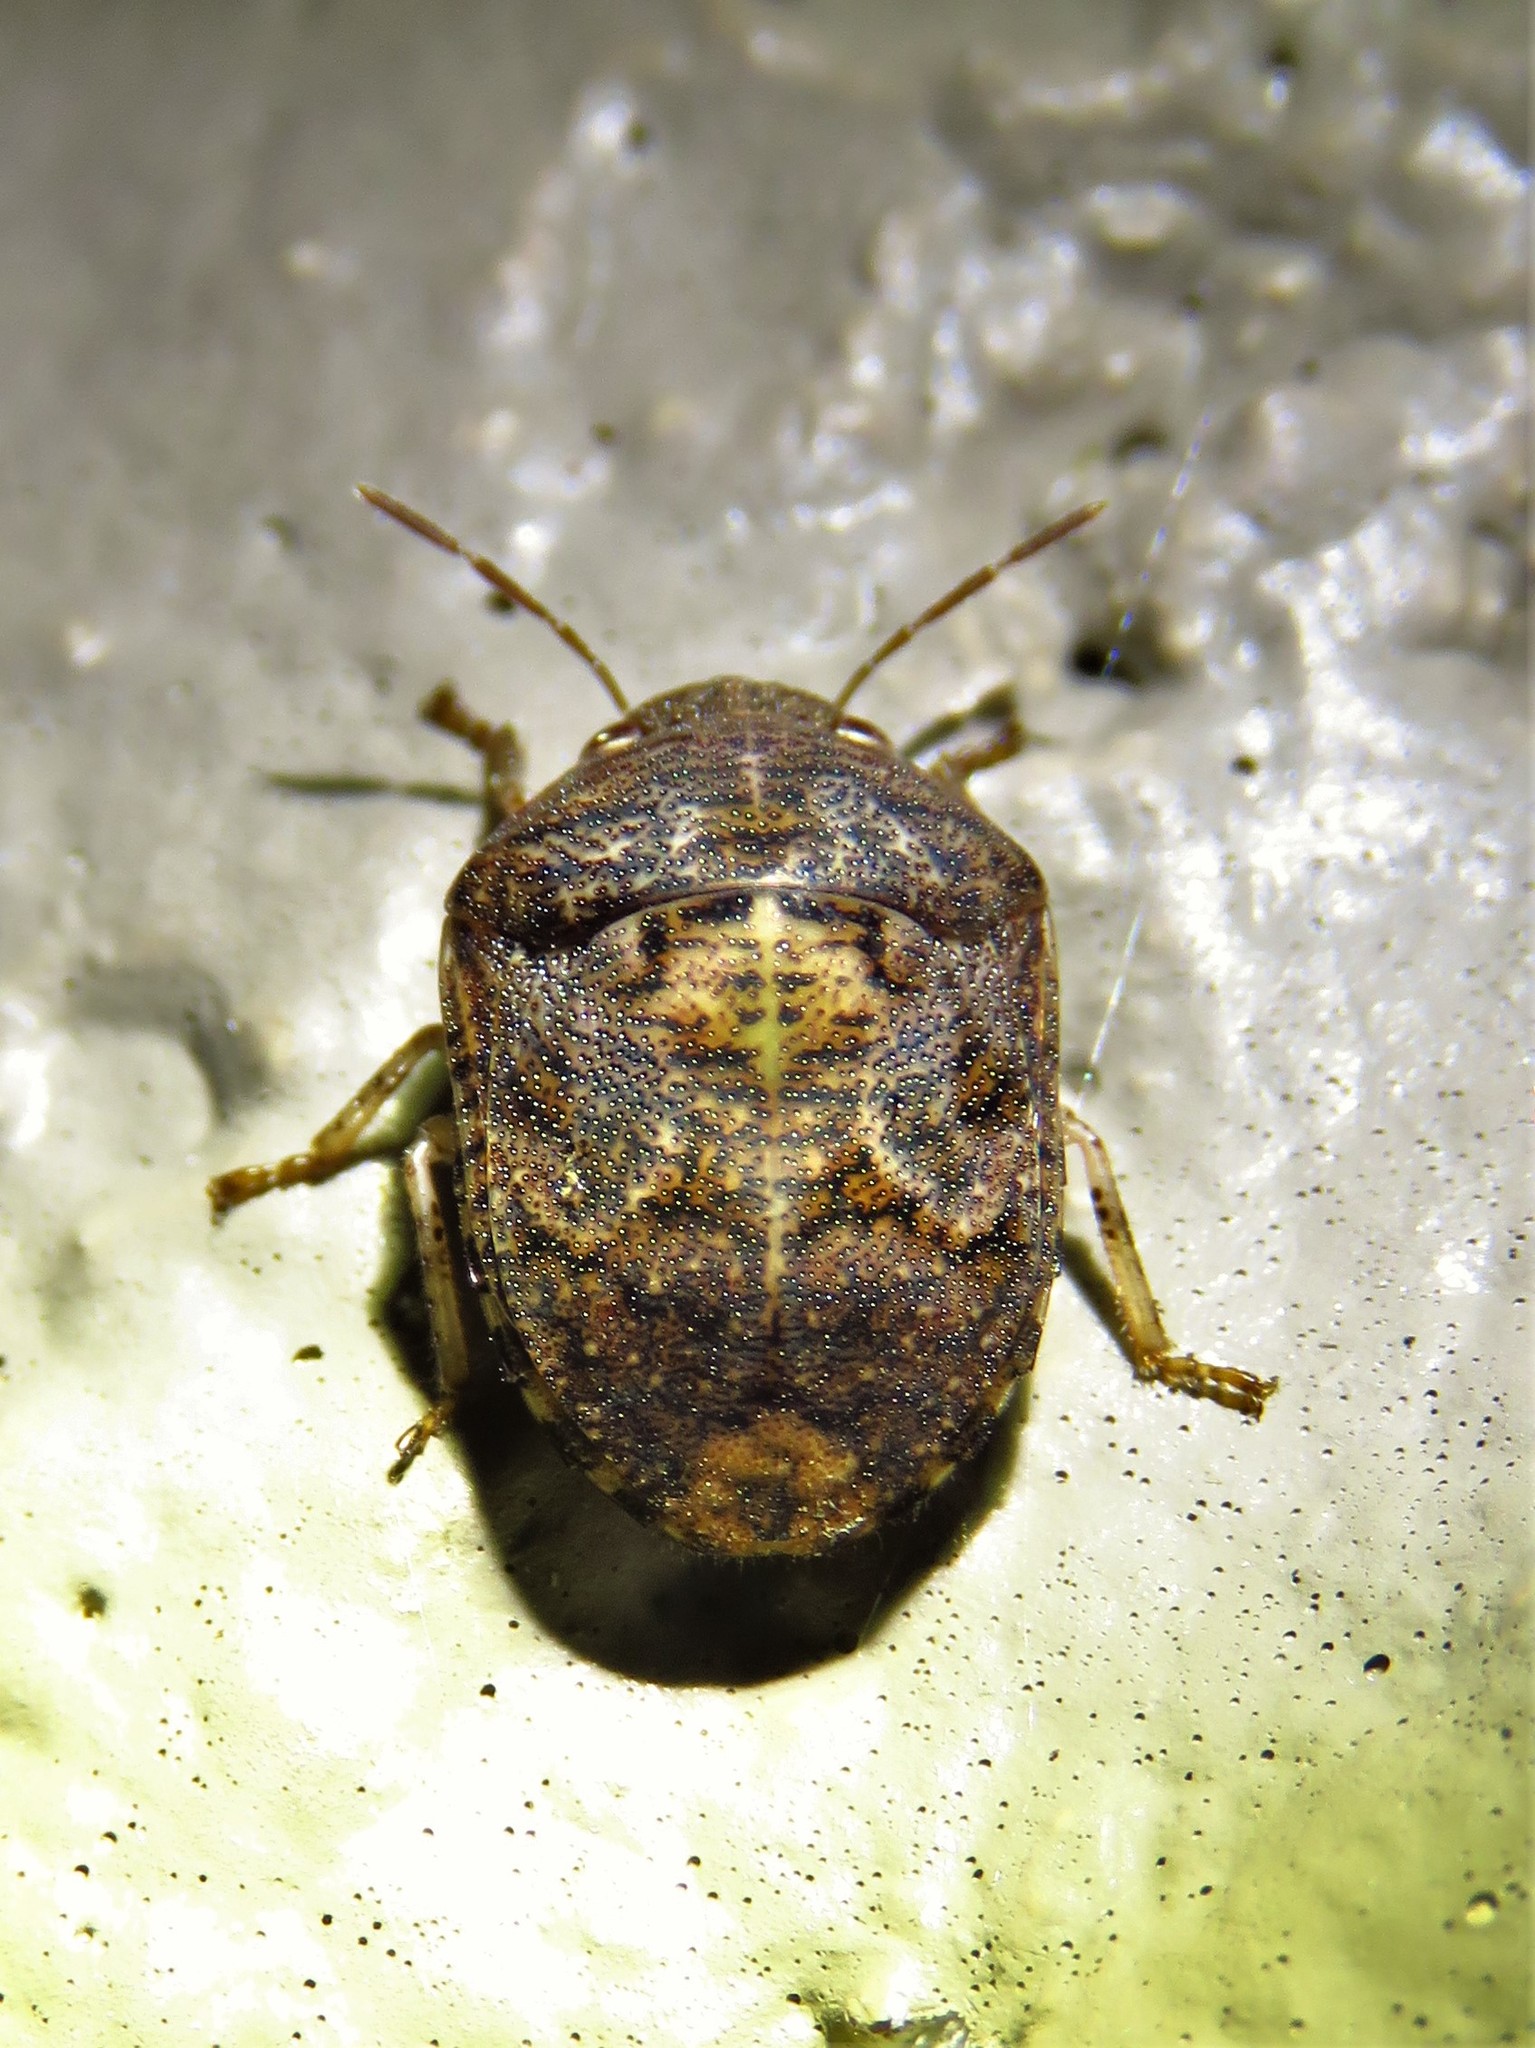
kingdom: Animalia
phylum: Arthropoda
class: Insecta
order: Hemiptera
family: Scutelleridae
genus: Stethaulax
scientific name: Stethaulax marmoratus
